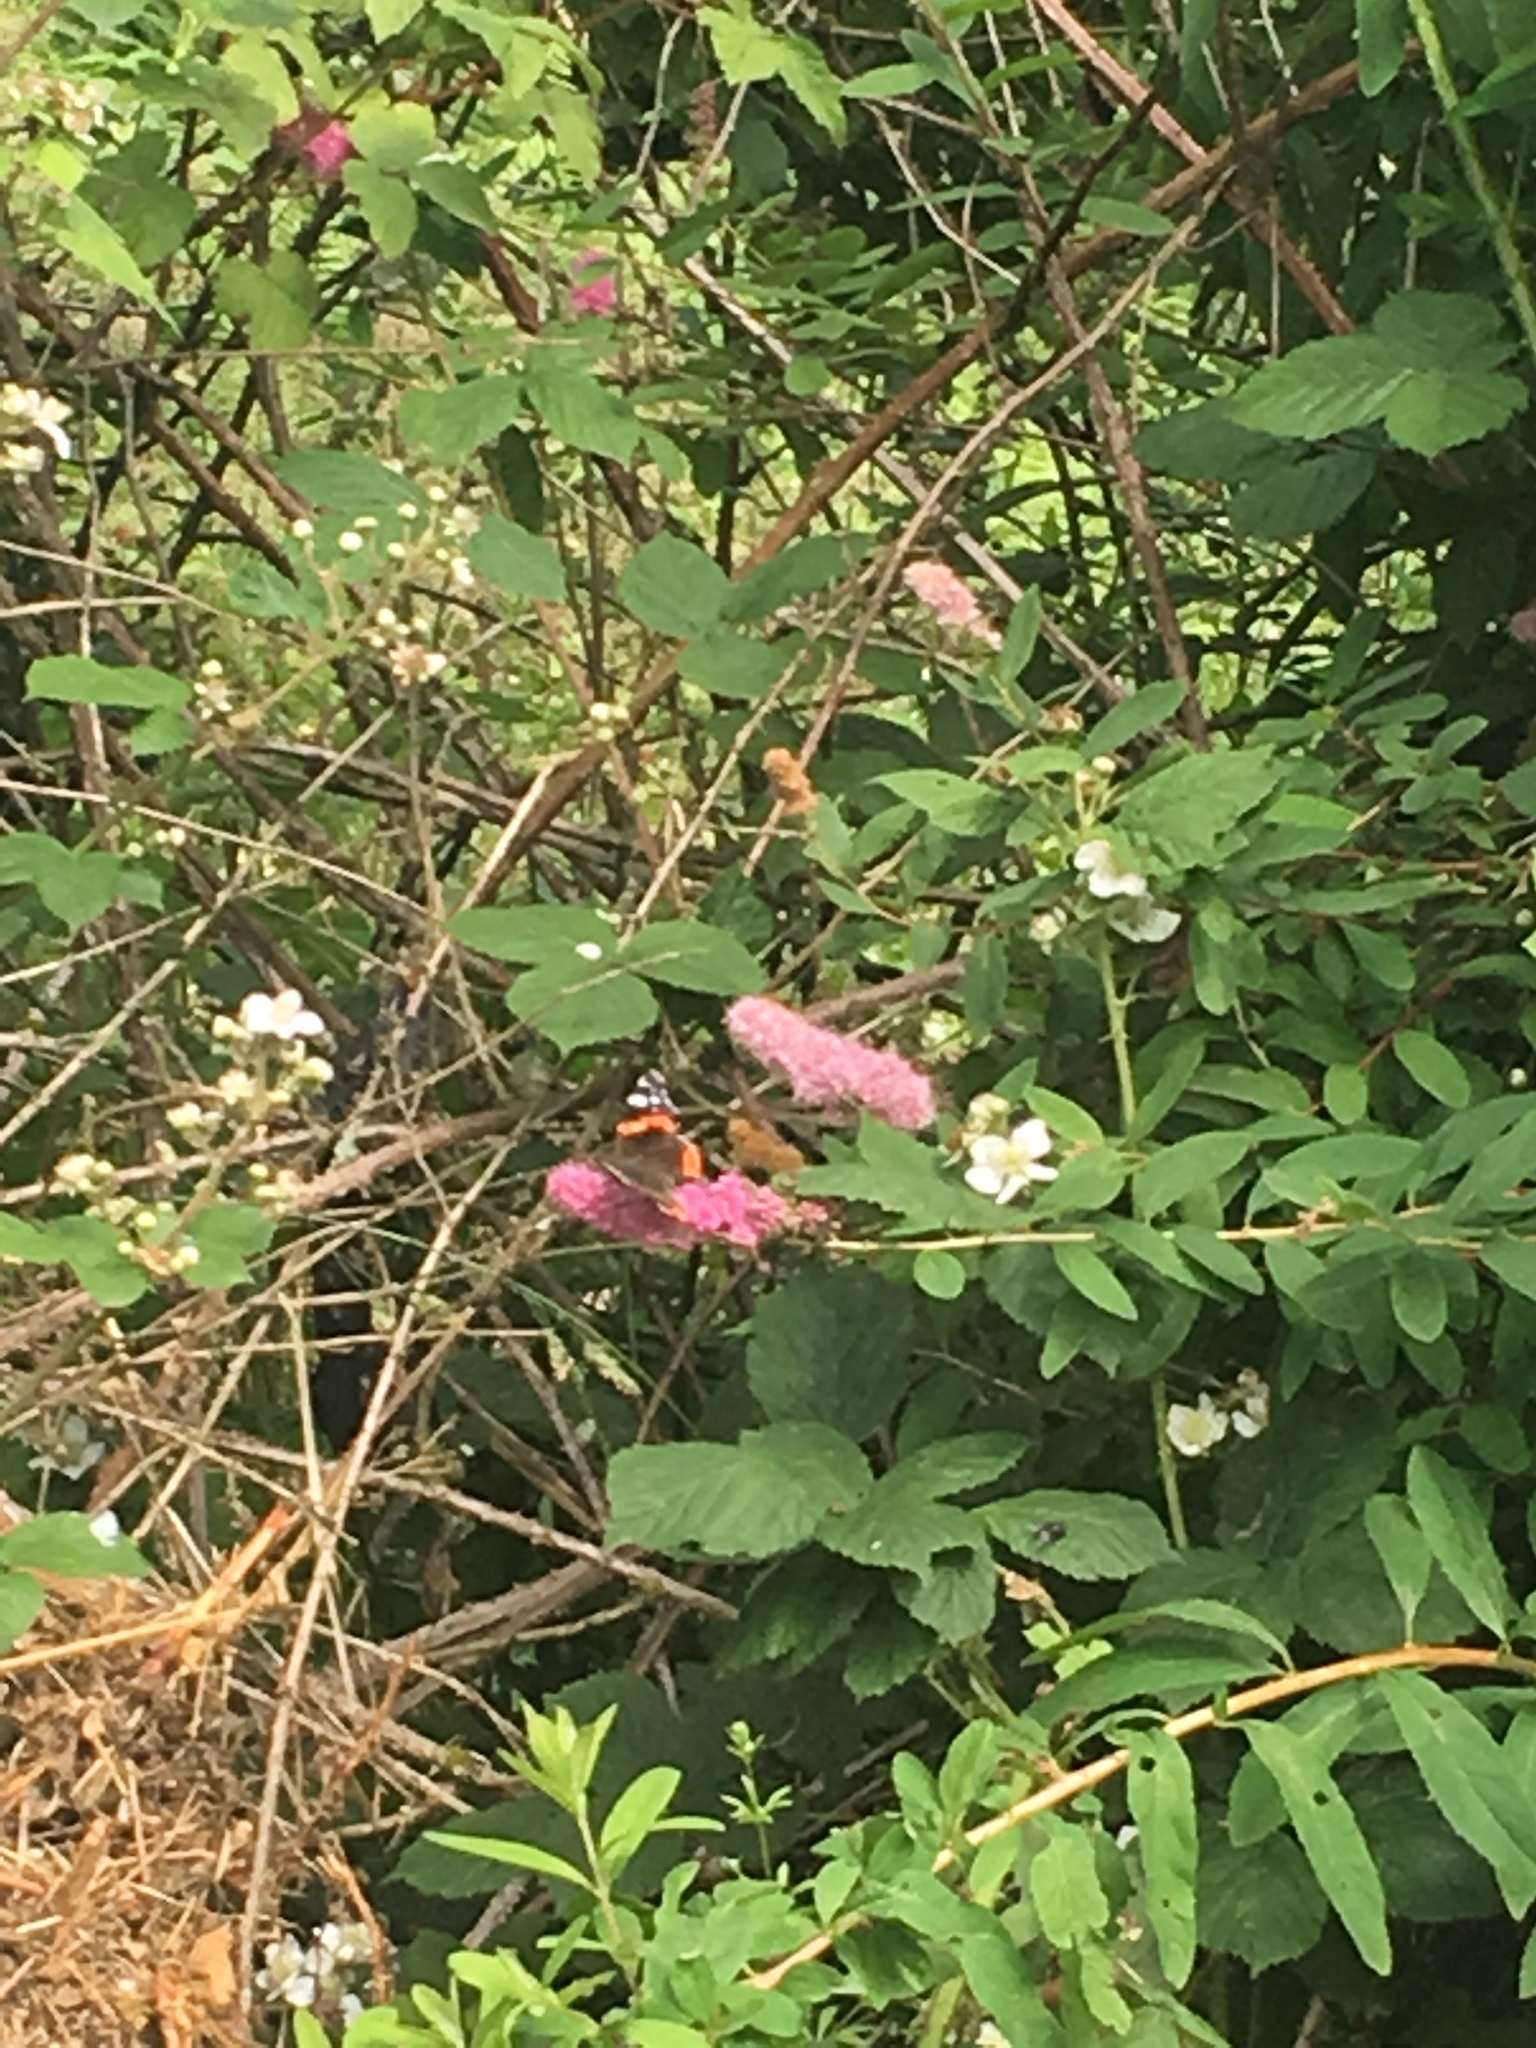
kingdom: Animalia
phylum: Arthropoda
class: Insecta
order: Lepidoptera
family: Nymphalidae
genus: Vanessa
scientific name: Vanessa atalanta
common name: Red admiral
